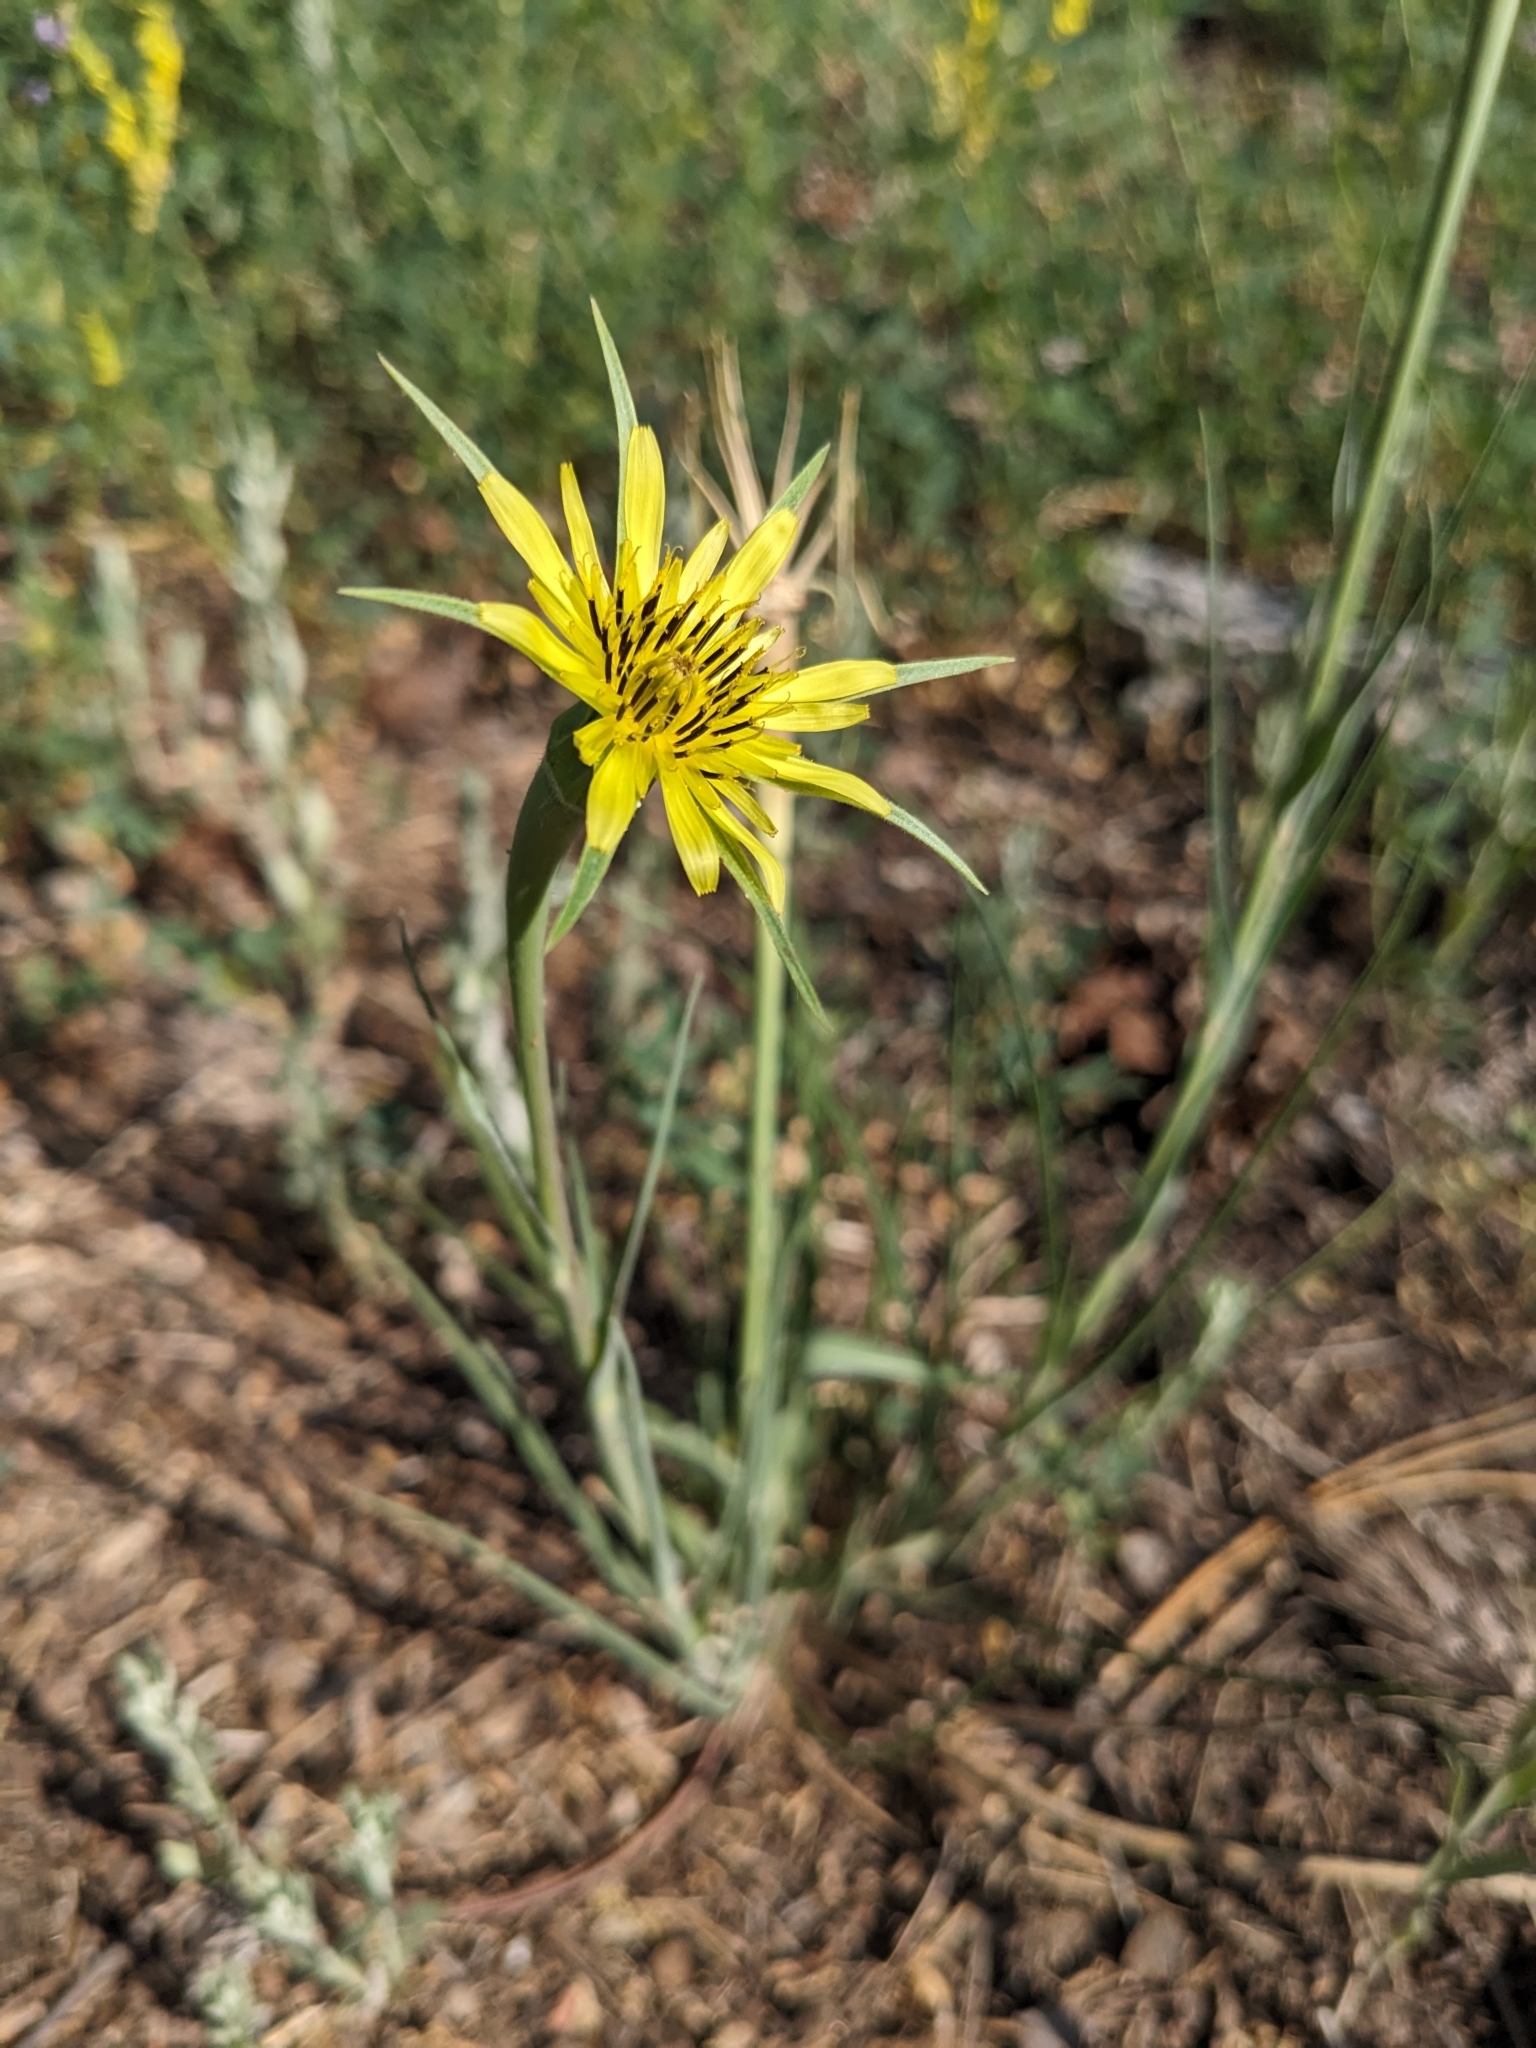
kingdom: Plantae
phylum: Tracheophyta
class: Magnoliopsida
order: Asterales
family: Asteraceae
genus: Tragopogon
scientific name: Tragopogon dubius
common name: Yellow salsify
